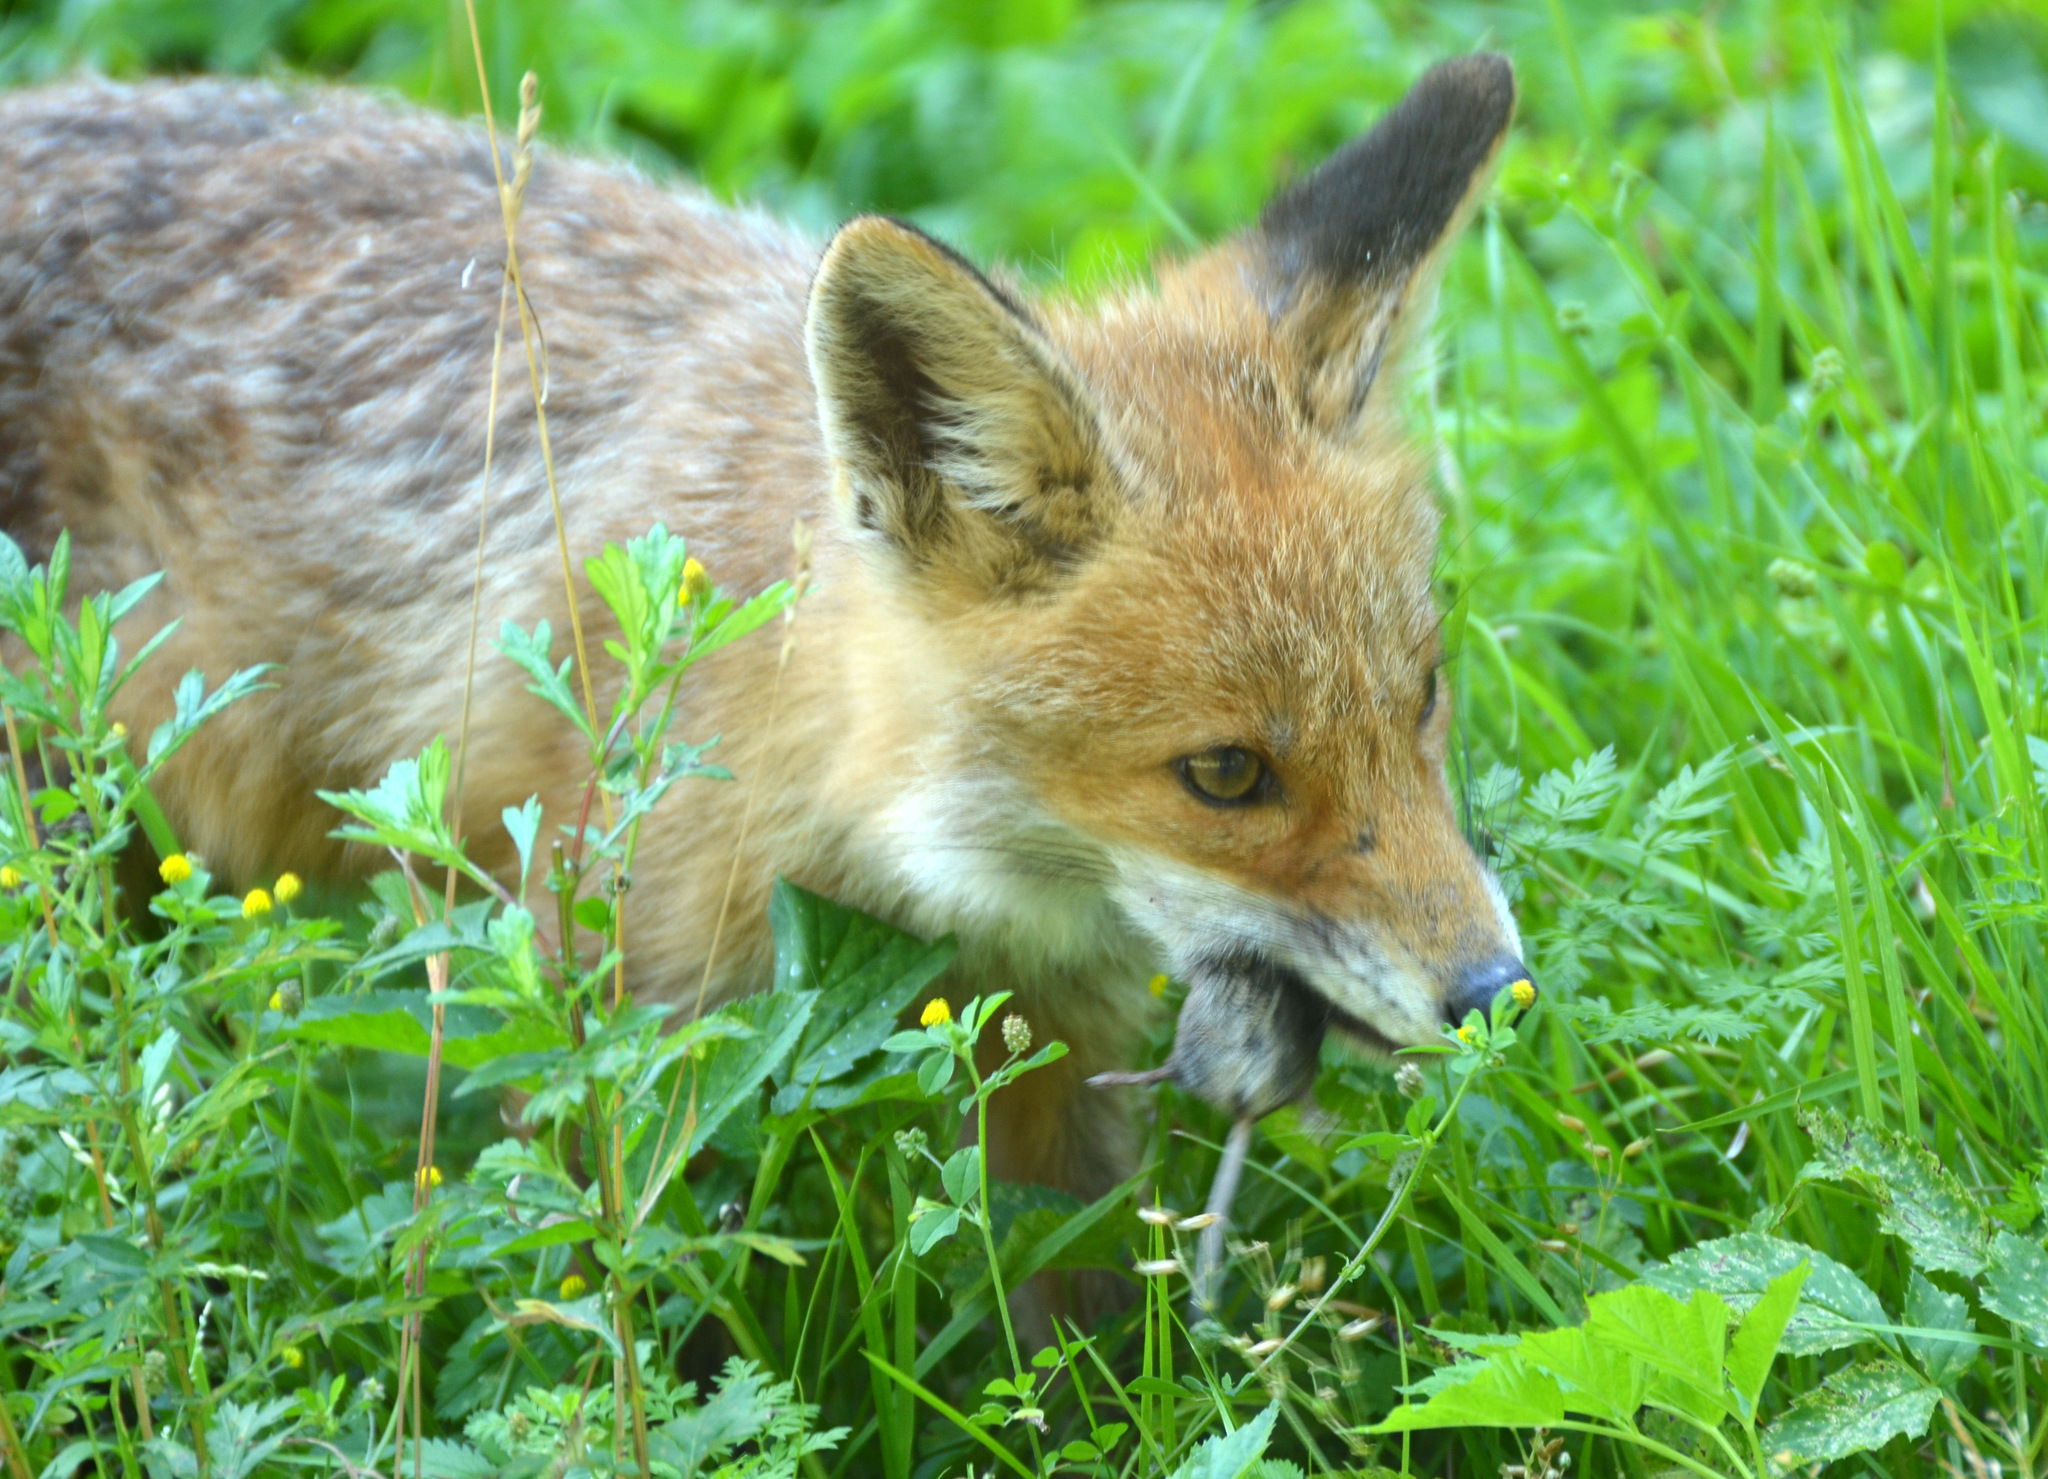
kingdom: Animalia
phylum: Chordata
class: Mammalia
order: Carnivora
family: Canidae
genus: Vulpes
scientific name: Vulpes vulpes
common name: Red fox
